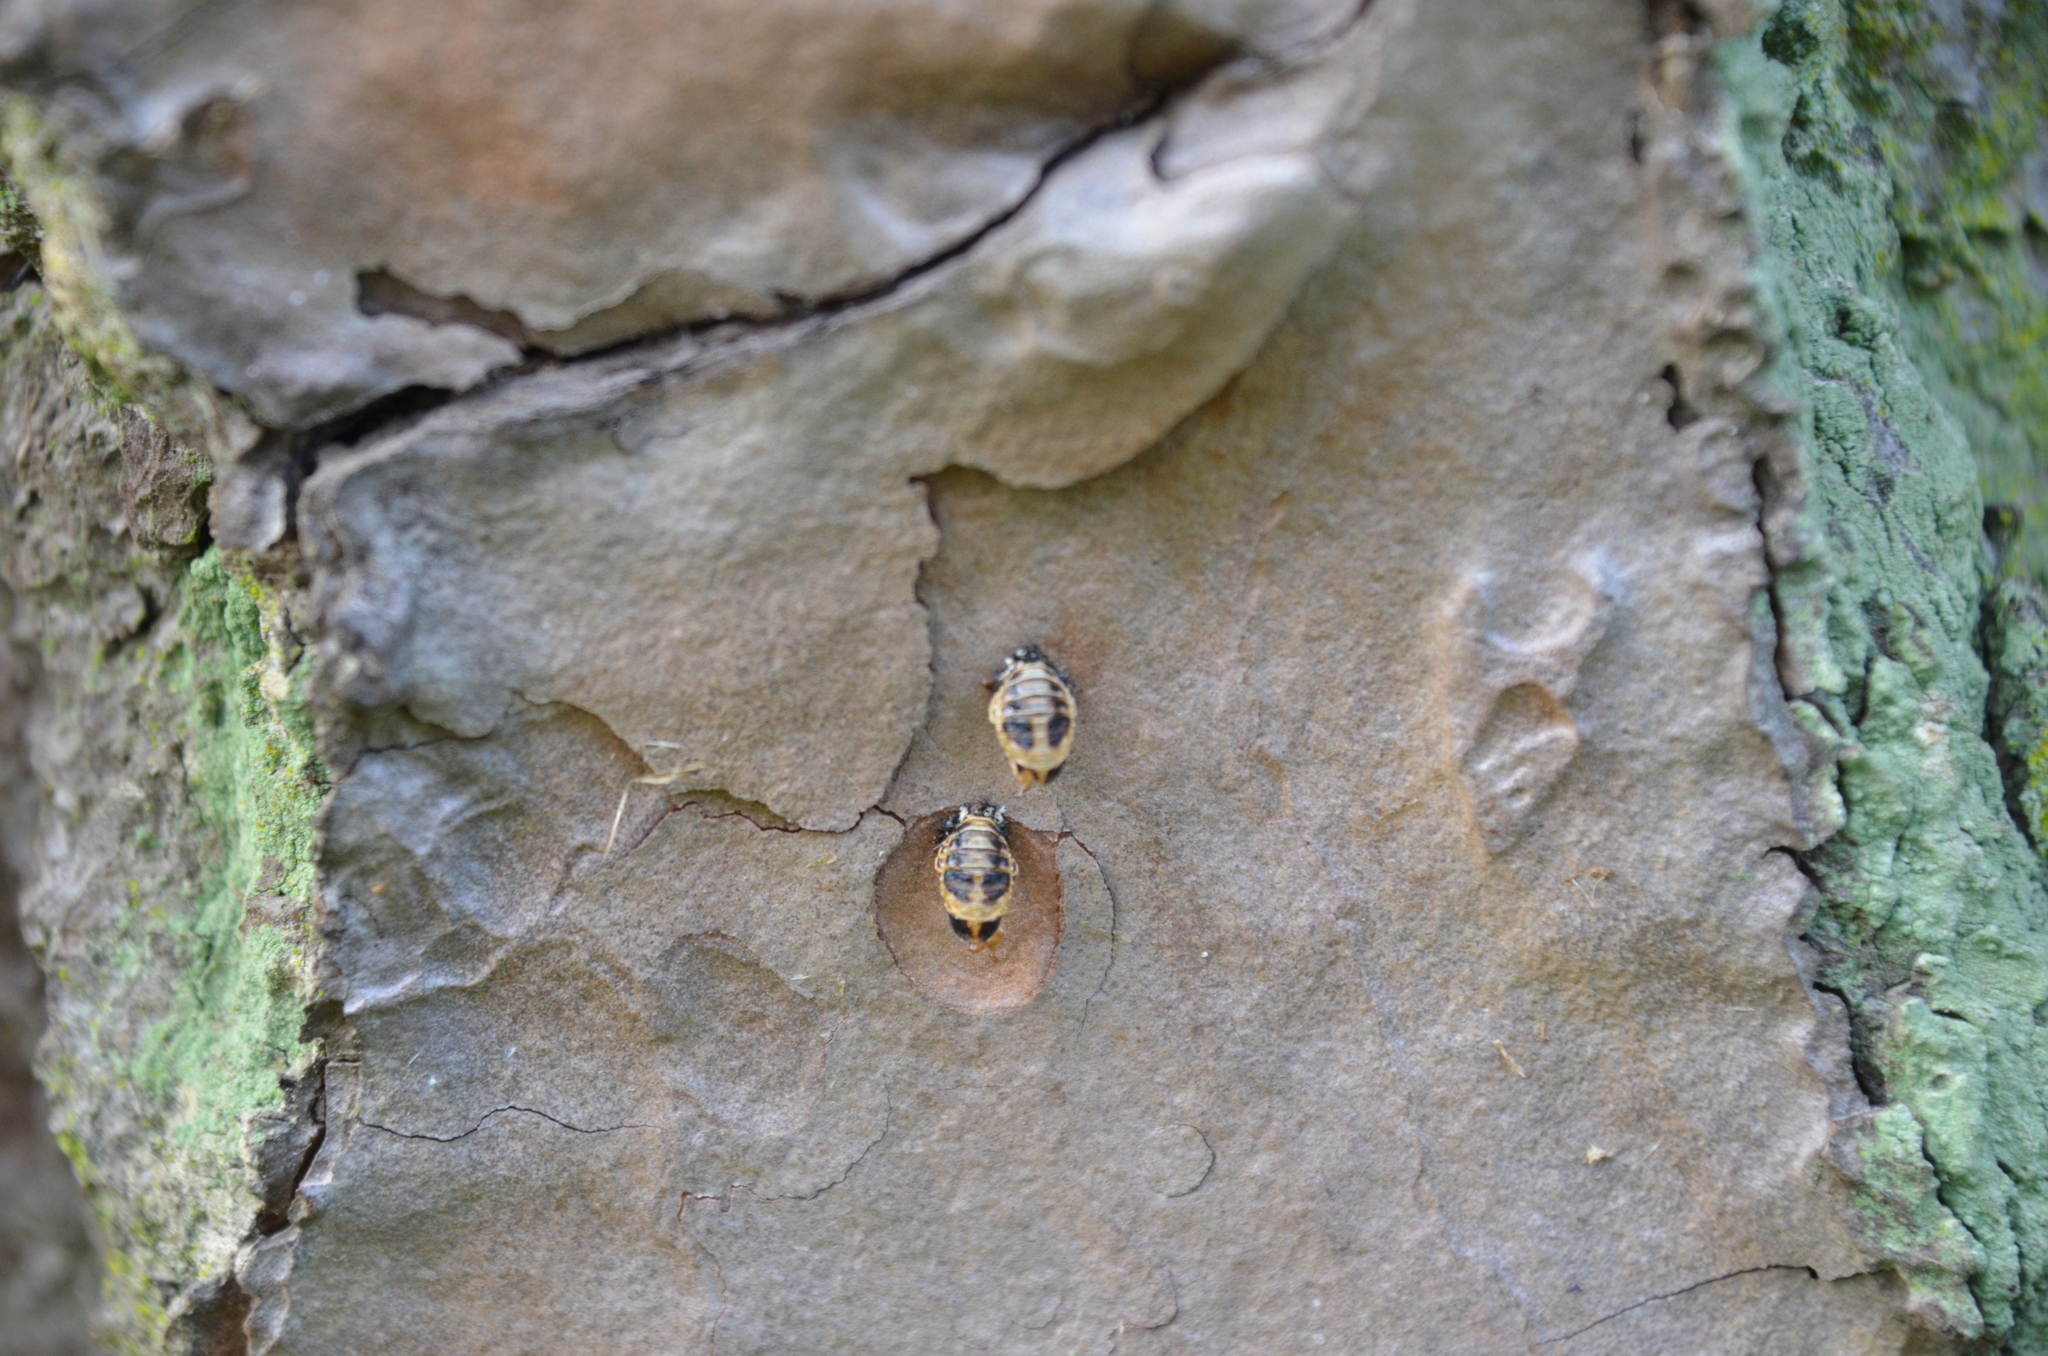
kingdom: Animalia
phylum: Arthropoda
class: Insecta
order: Coleoptera
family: Coccinellidae
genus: Harmonia
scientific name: Harmonia axyridis
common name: Harlequin ladybird
